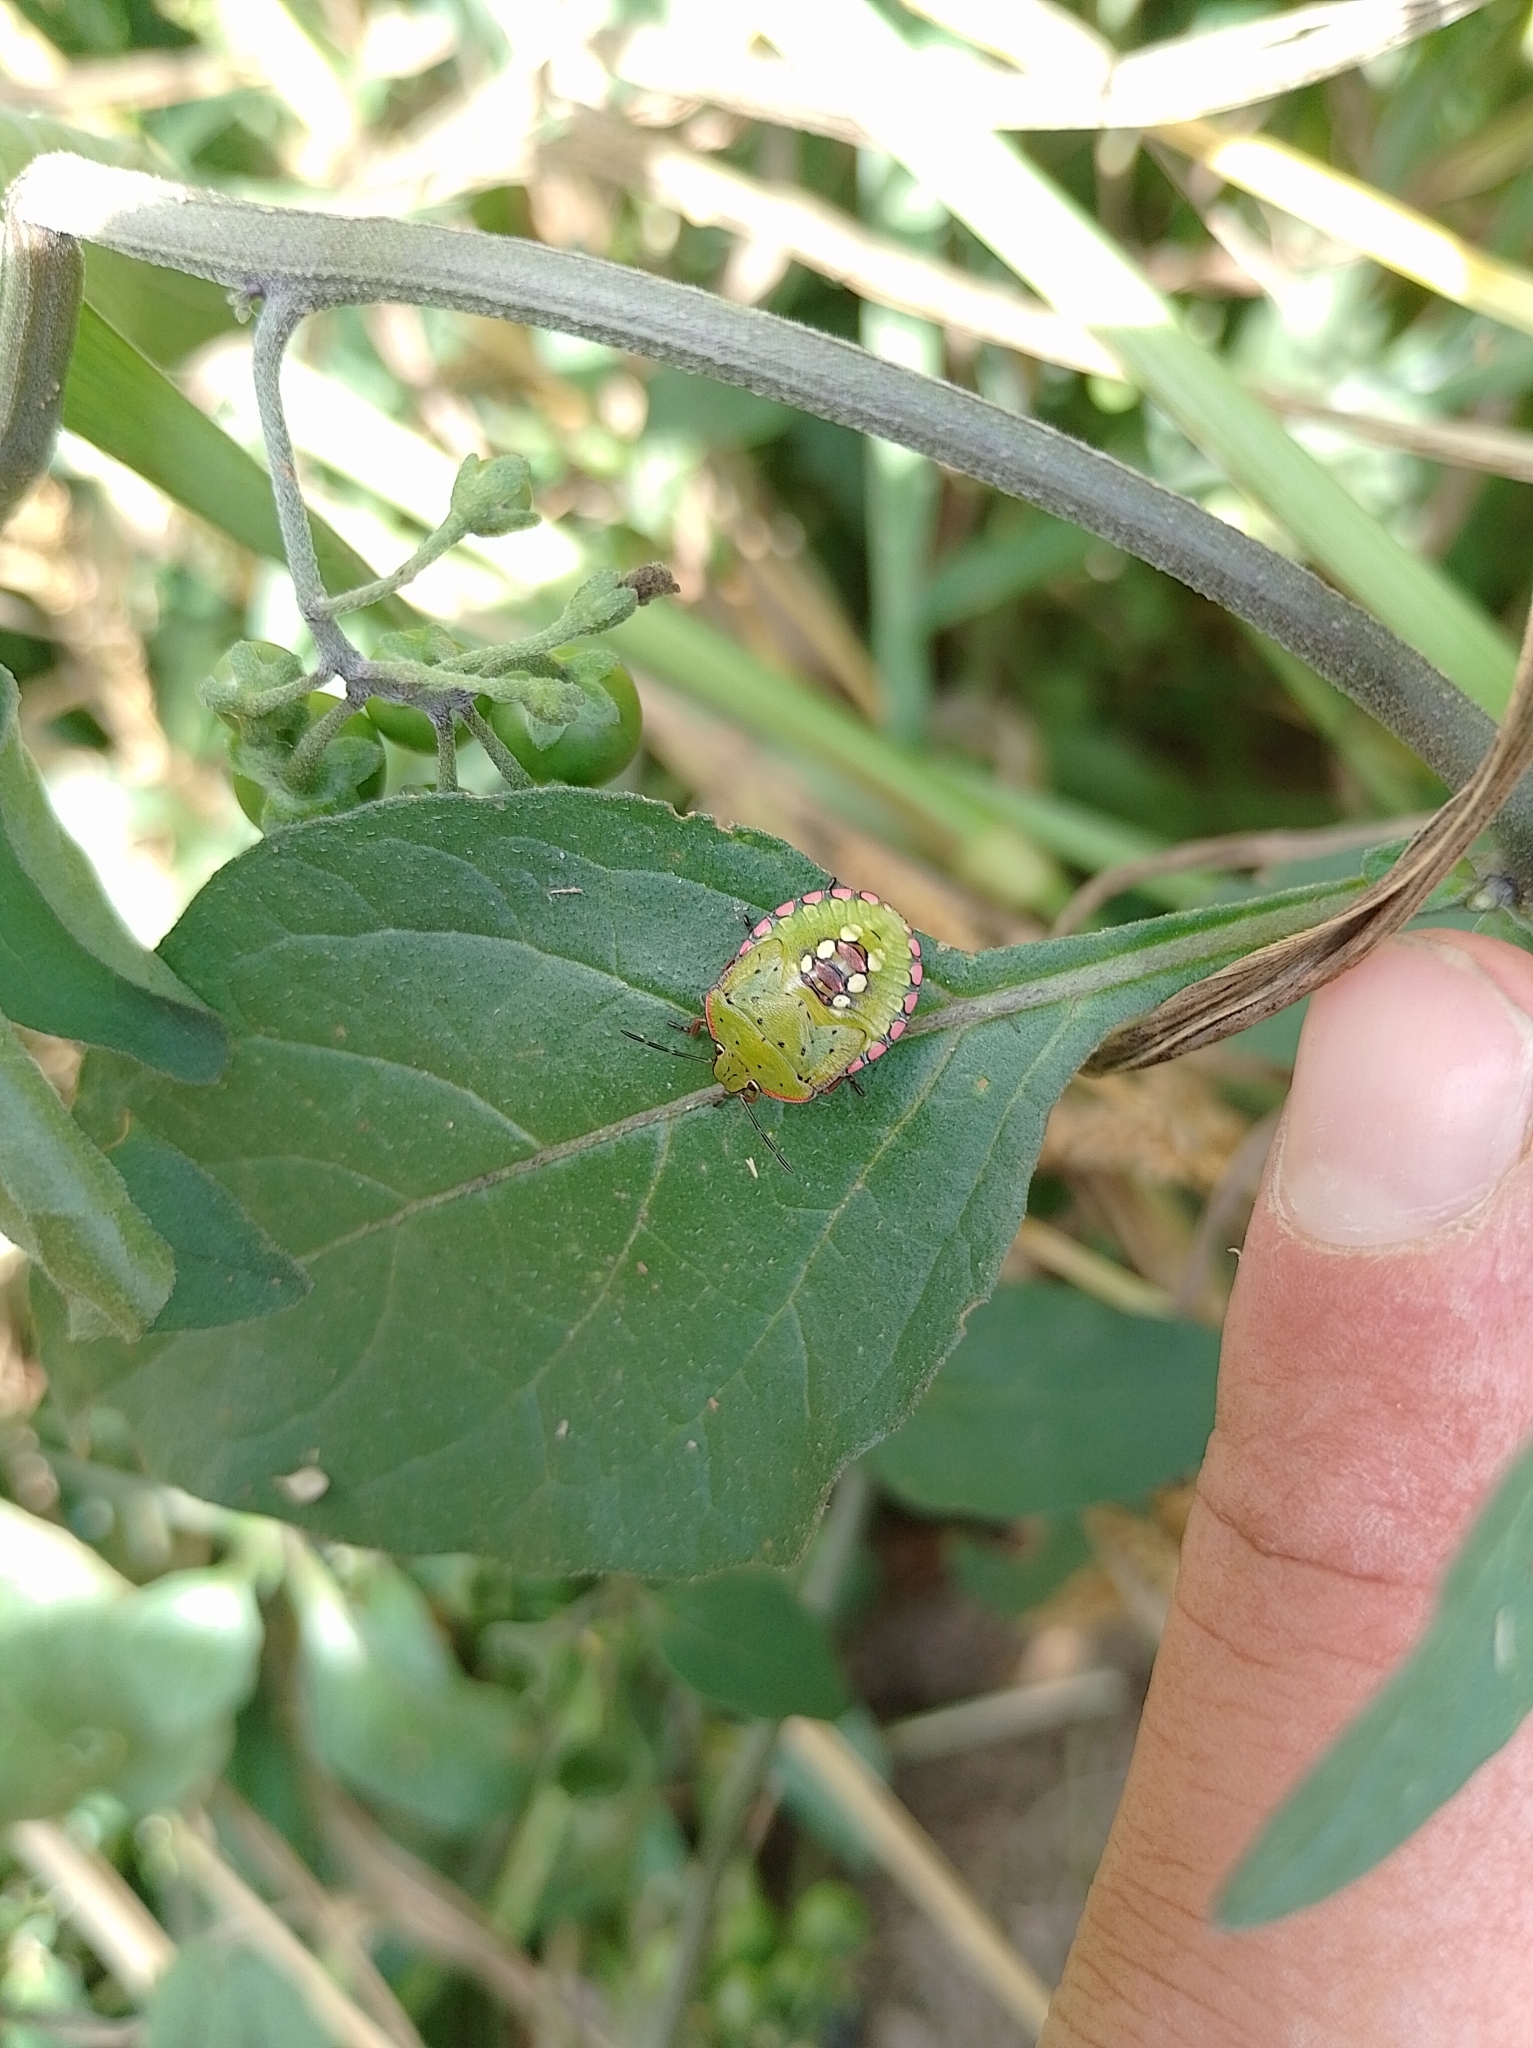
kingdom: Animalia
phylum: Arthropoda
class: Insecta
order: Hemiptera
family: Pentatomidae
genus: Nezara
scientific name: Nezara viridula
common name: Southern green stink bug
